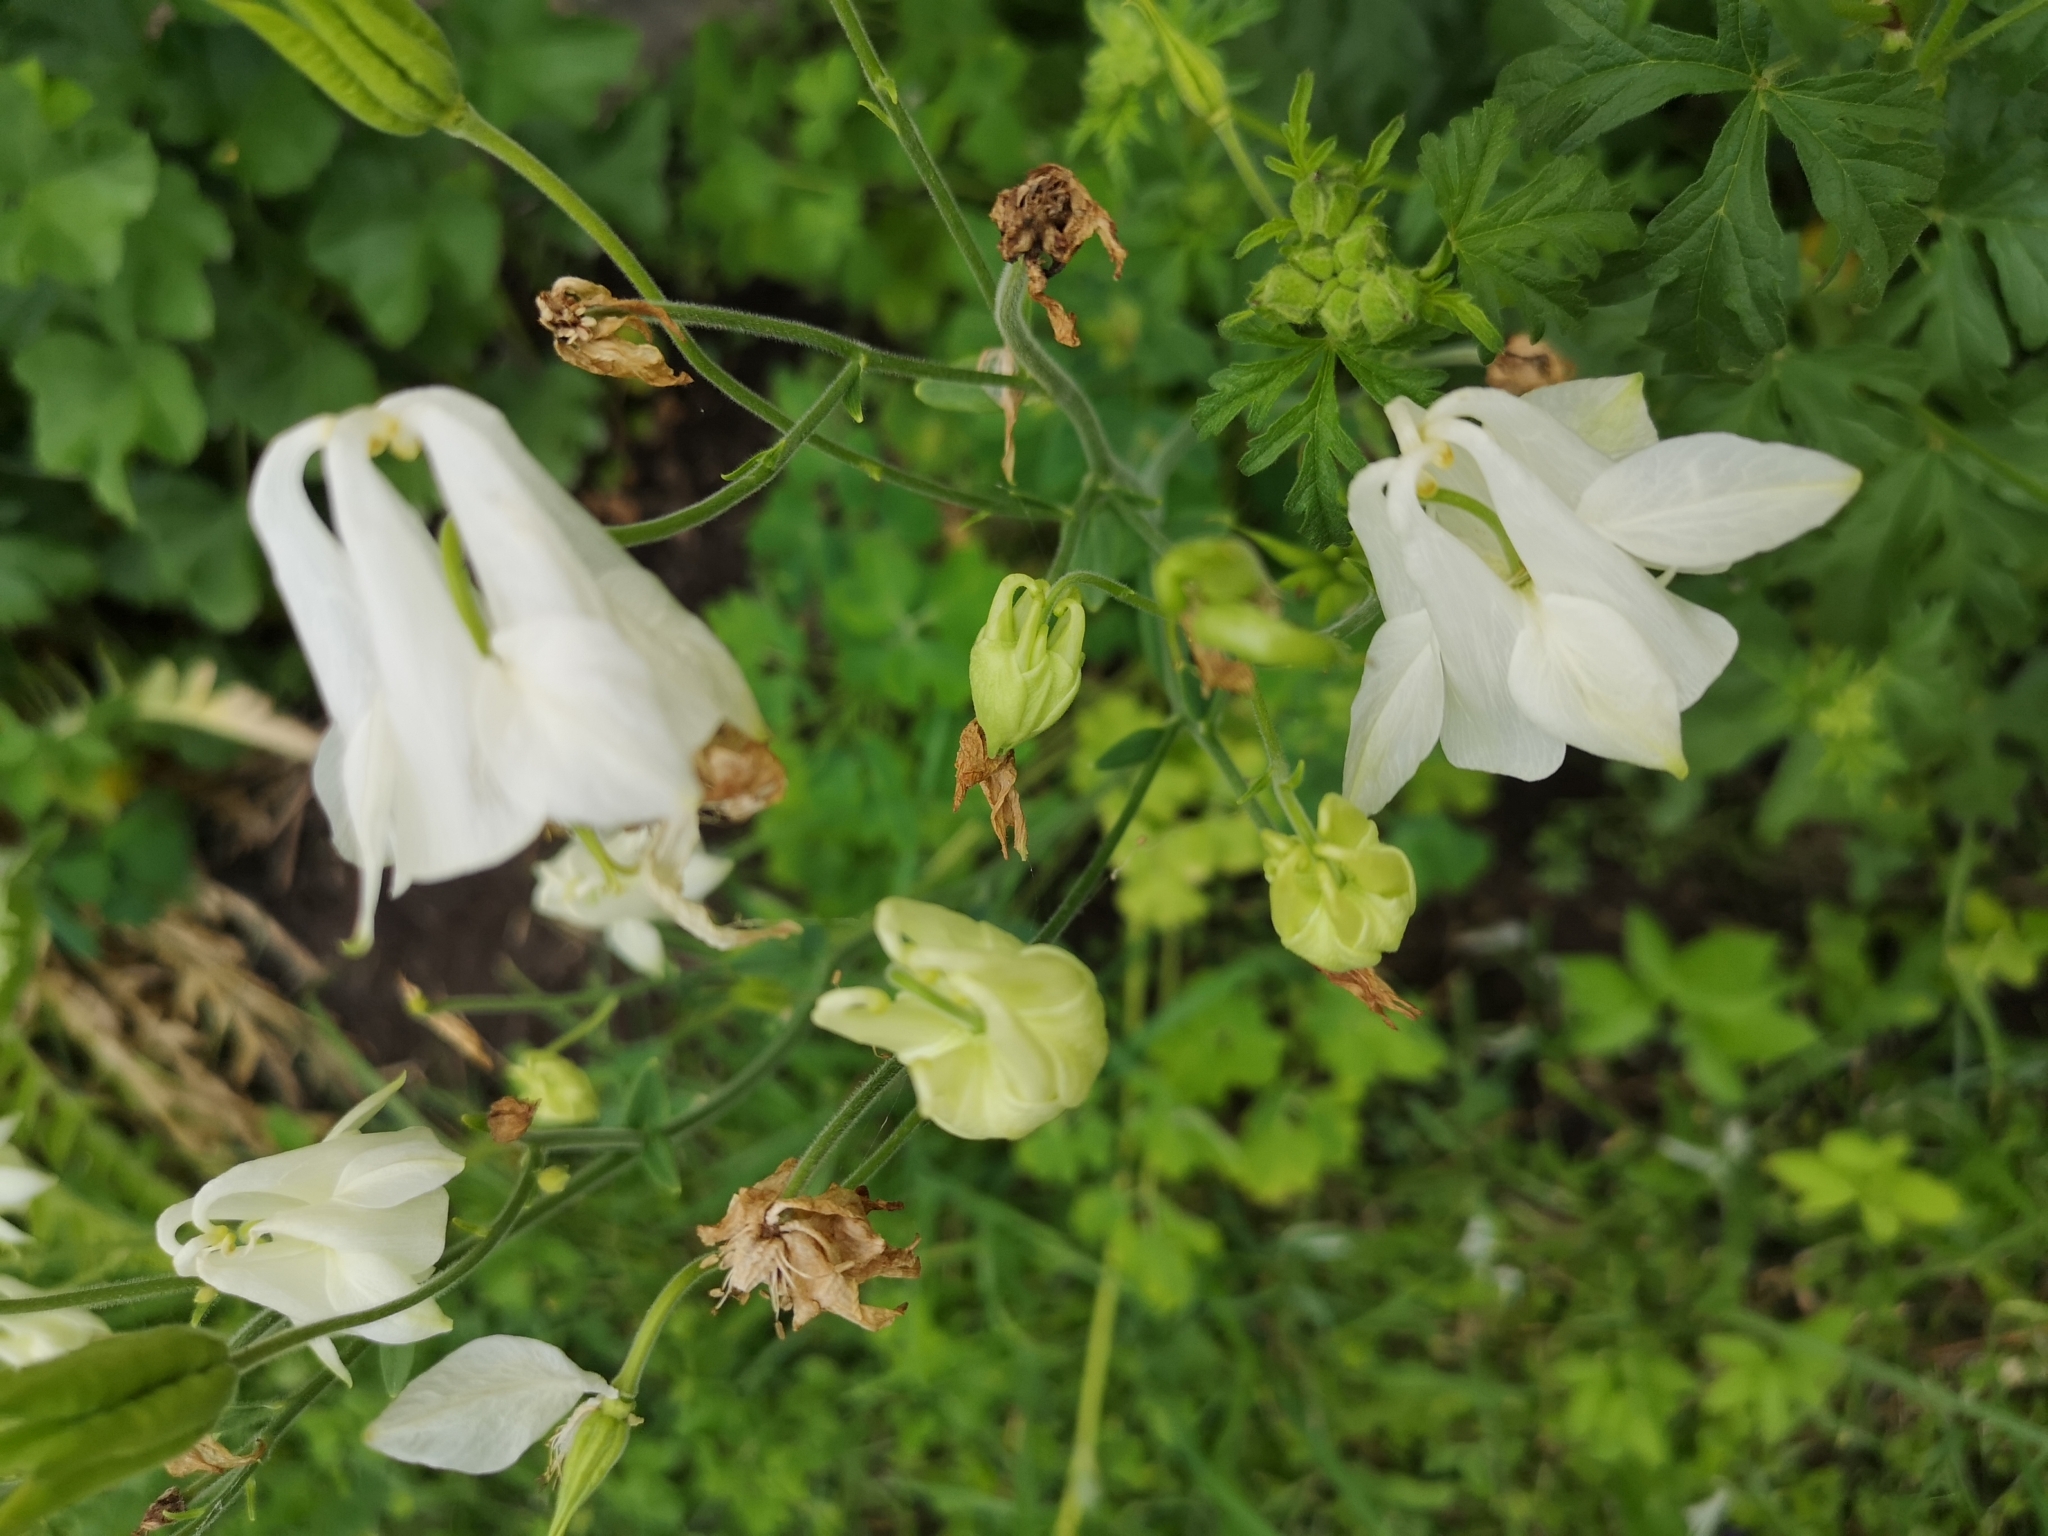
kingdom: Plantae
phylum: Tracheophyta
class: Magnoliopsida
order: Ranunculales
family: Ranunculaceae
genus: Aquilegia
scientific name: Aquilegia vulgaris
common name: Columbine
